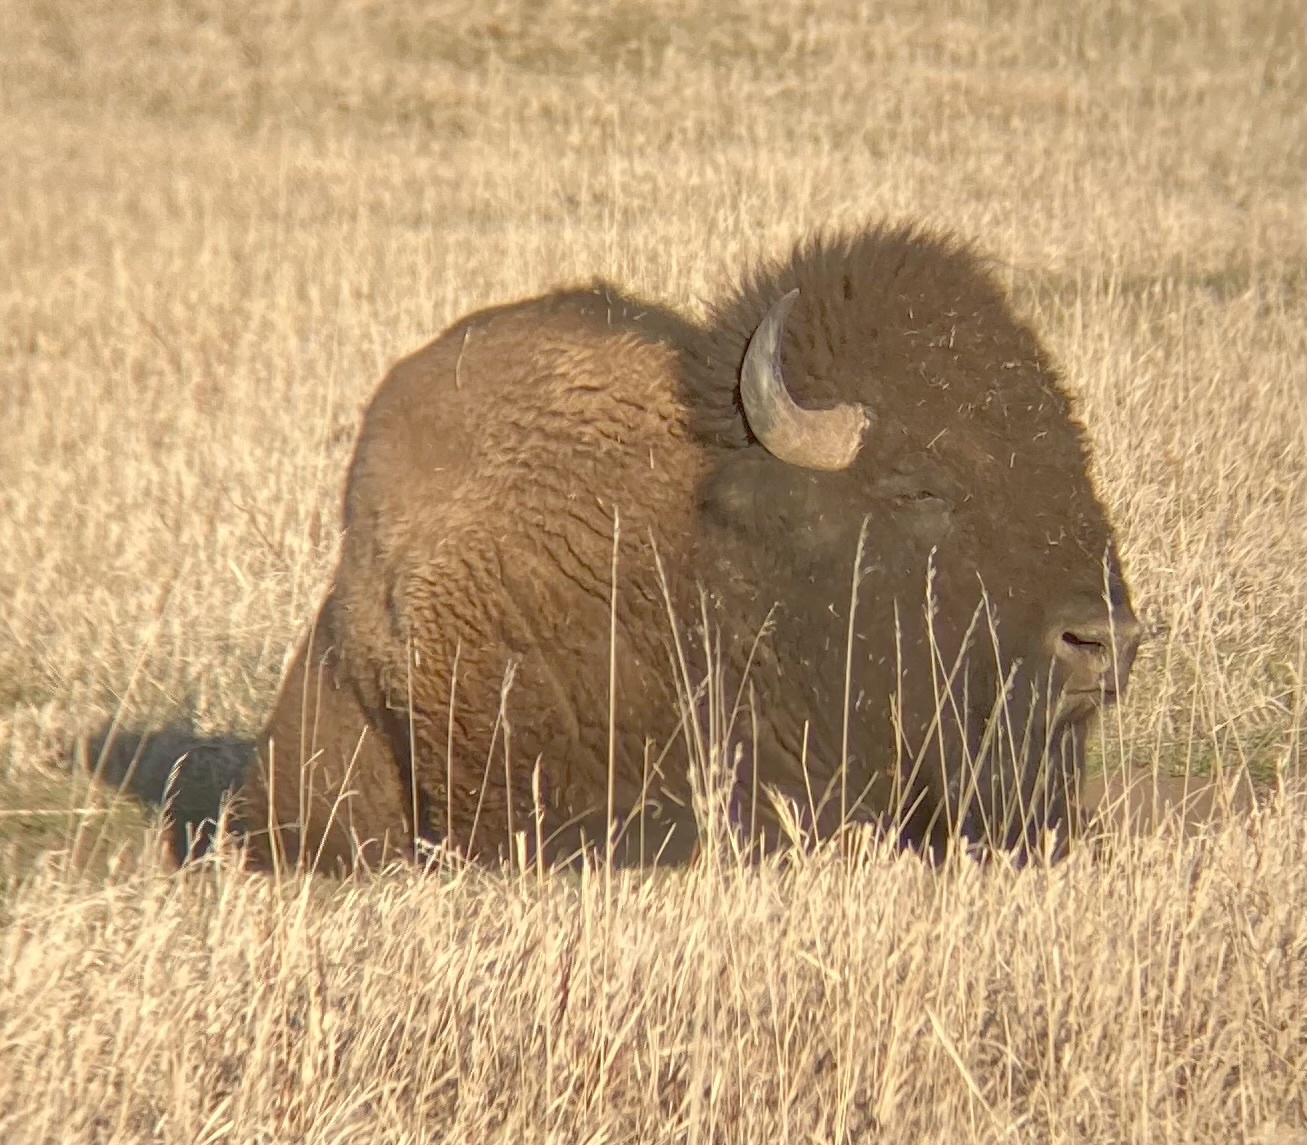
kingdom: Animalia
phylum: Chordata
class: Mammalia
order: Artiodactyla
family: Bovidae
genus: Bison
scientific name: Bison bison
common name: American bison
